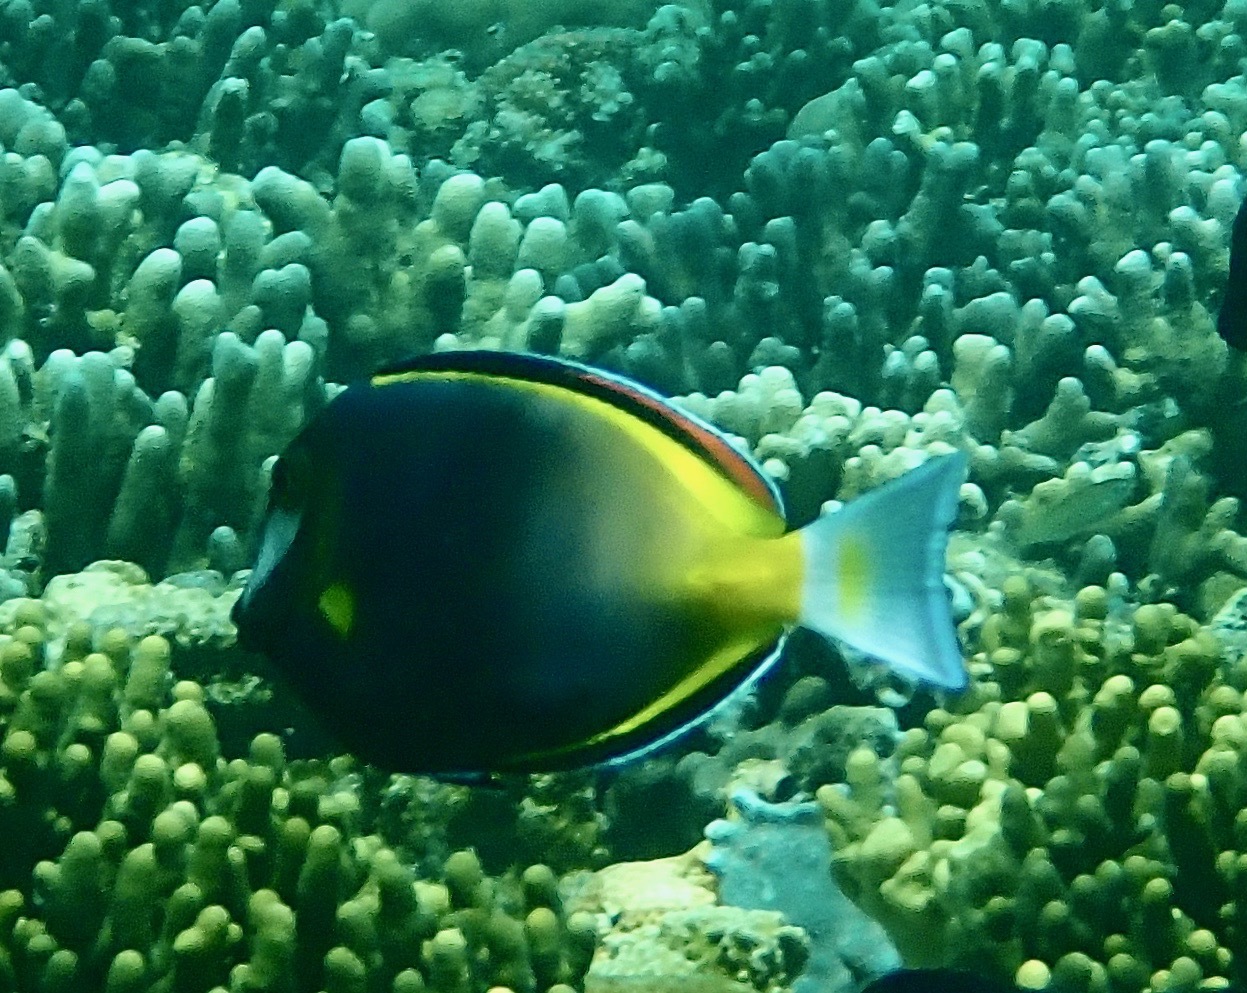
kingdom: Animalia
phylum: Chordata
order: Perciformes
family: Acanthuridae
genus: Acanthurus
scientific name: Acanthurus japonicus
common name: Japanese surgeonfish
